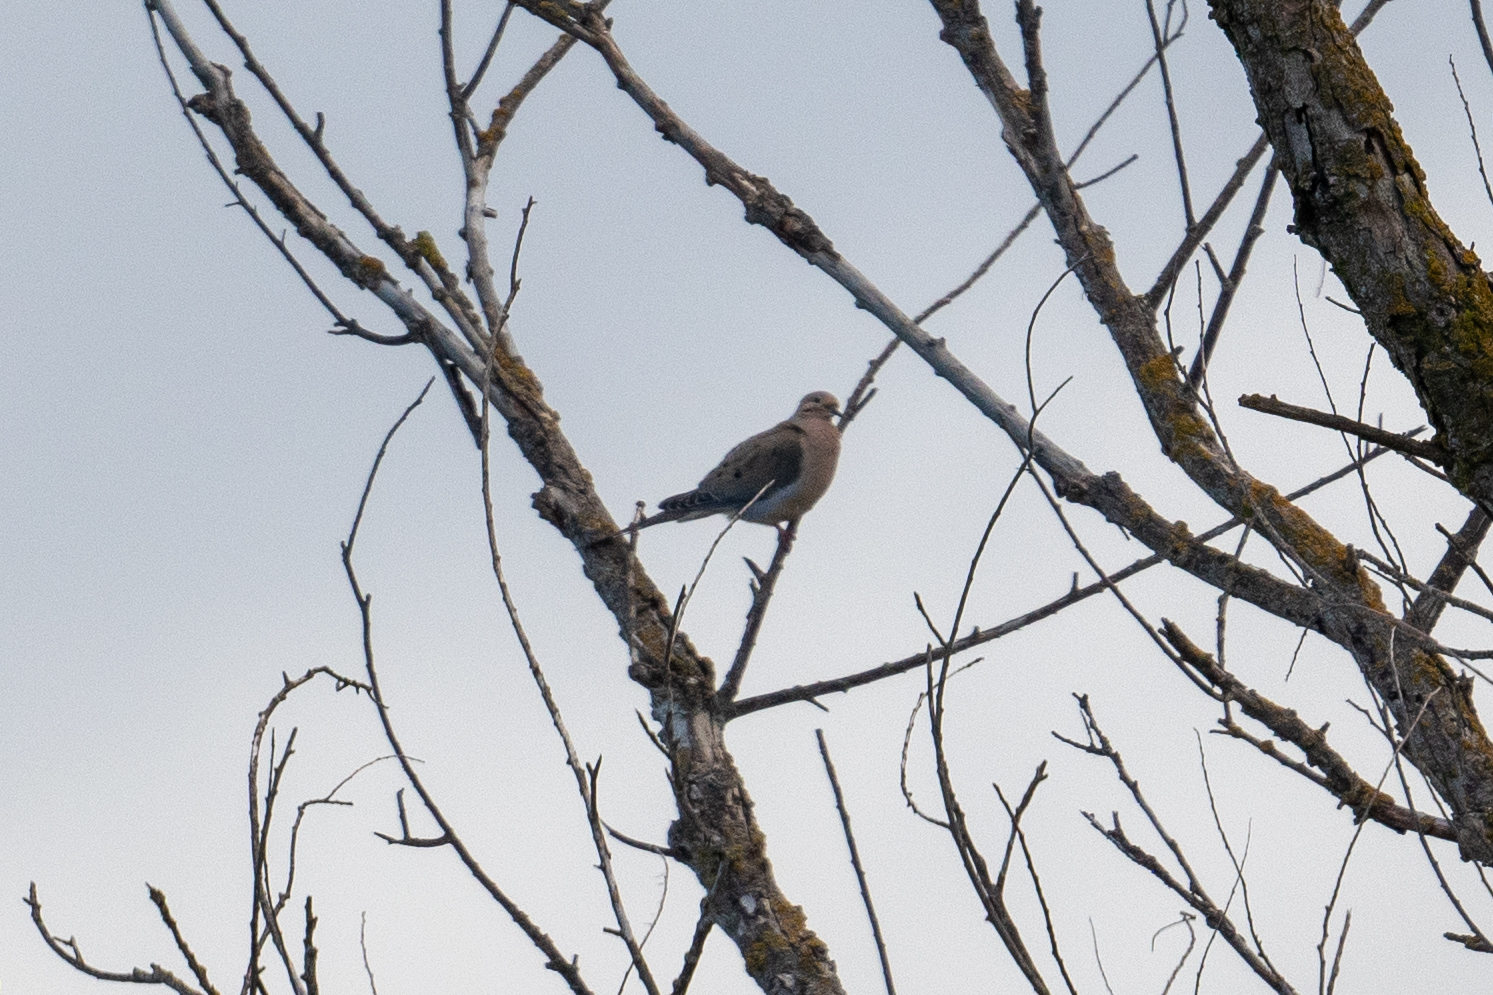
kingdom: Animalia
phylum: Chordata
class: Aves
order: Columbiformes
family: Columbidae
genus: Zenaida
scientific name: Zenaida macroura
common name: Mourning dove
